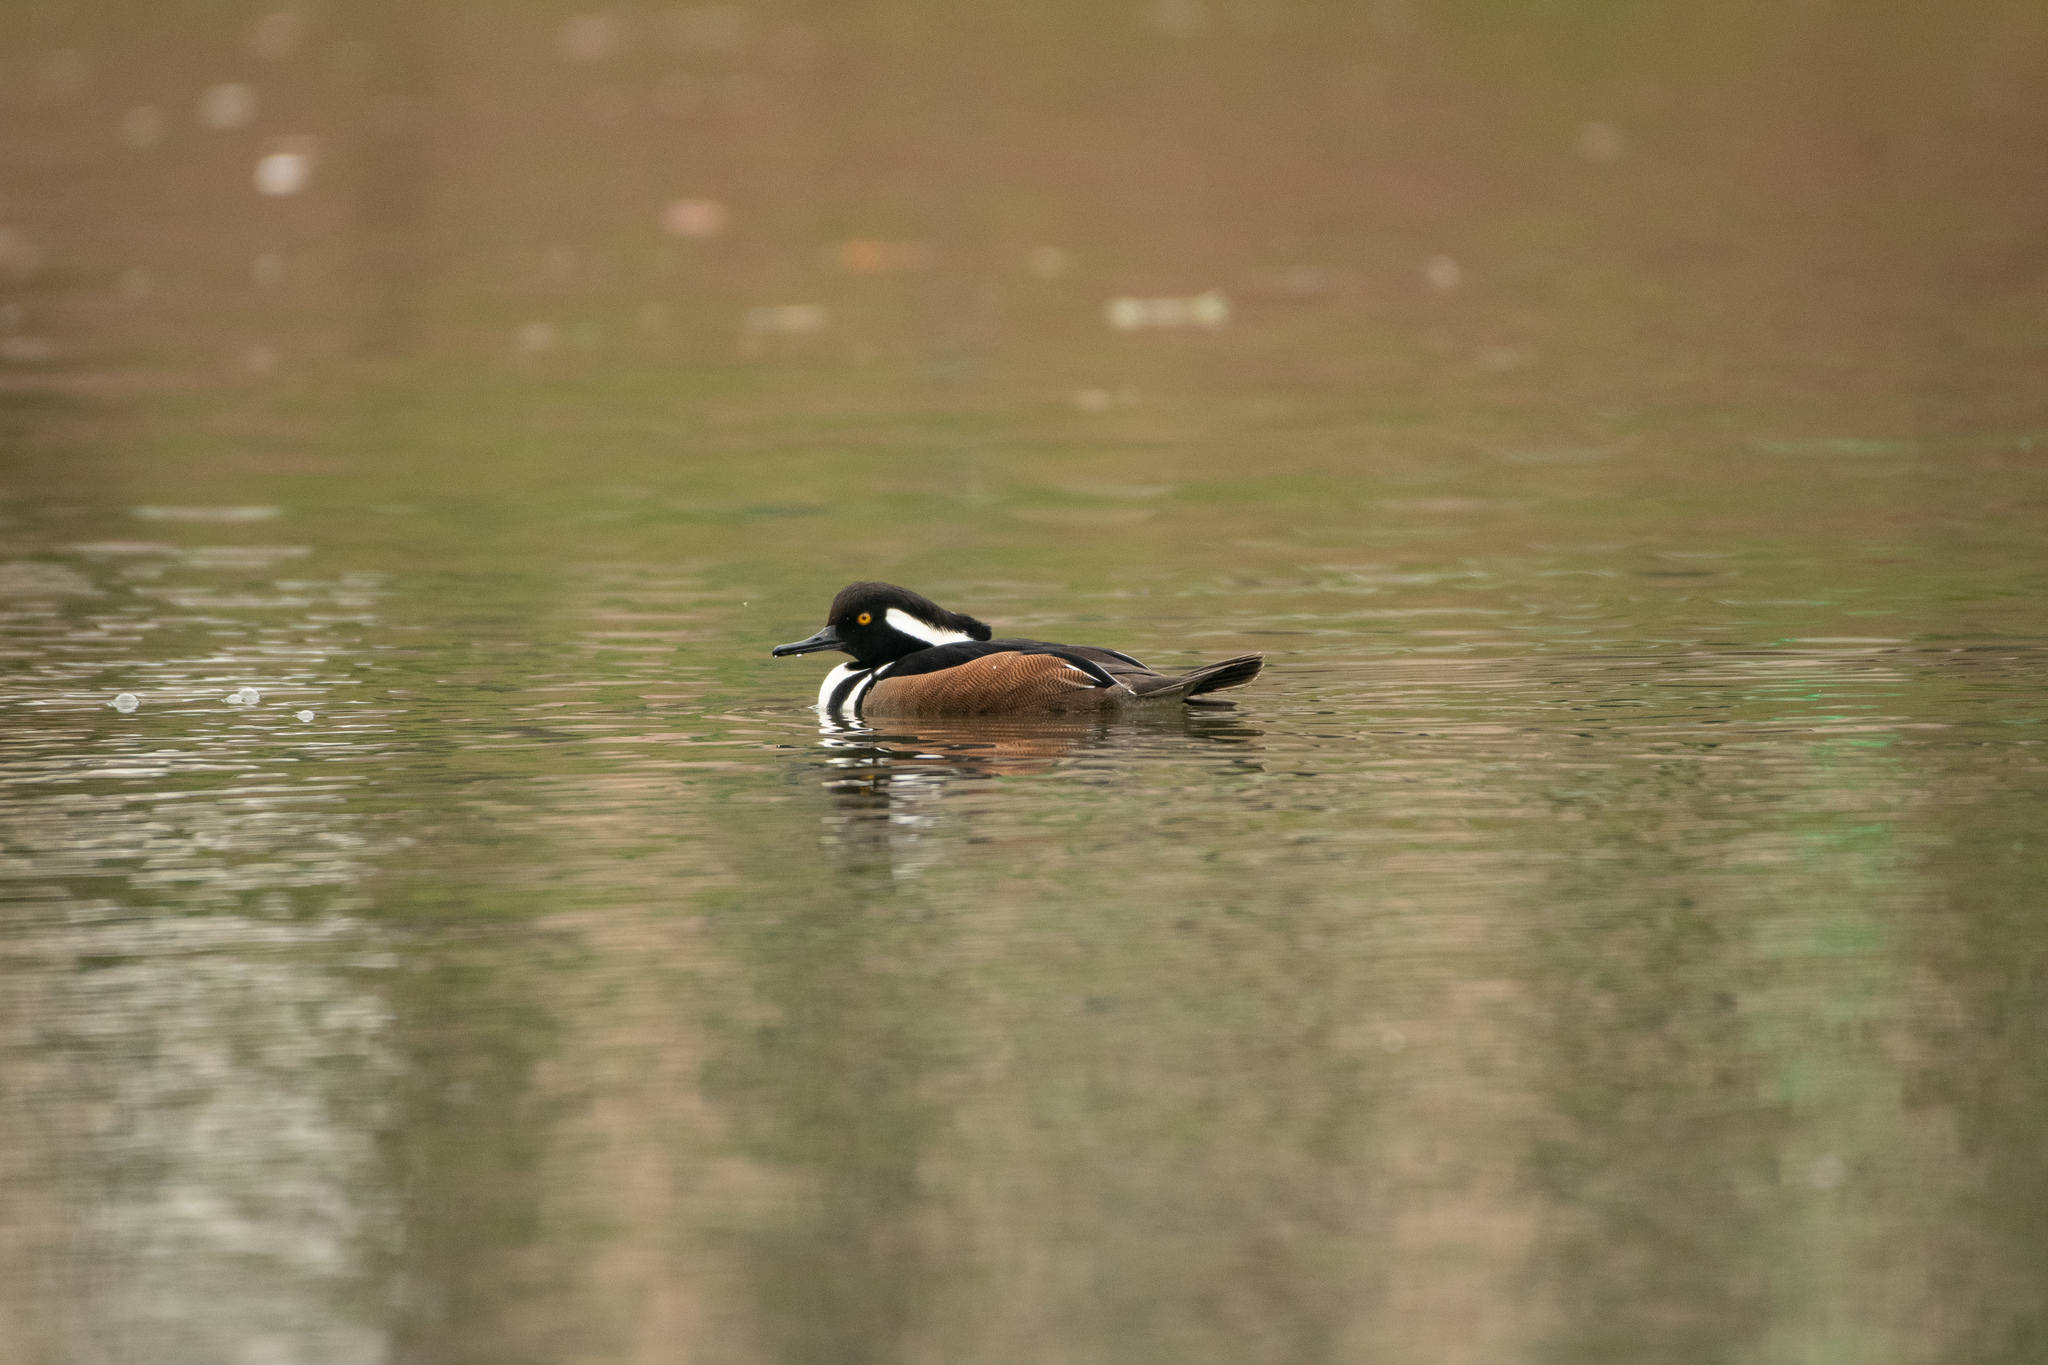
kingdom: Animalia
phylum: Chordata
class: Aves
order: Anseriformes
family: Anatidae
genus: Lophodytes
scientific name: Lophodytes cucullatus
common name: Hooded merganser
